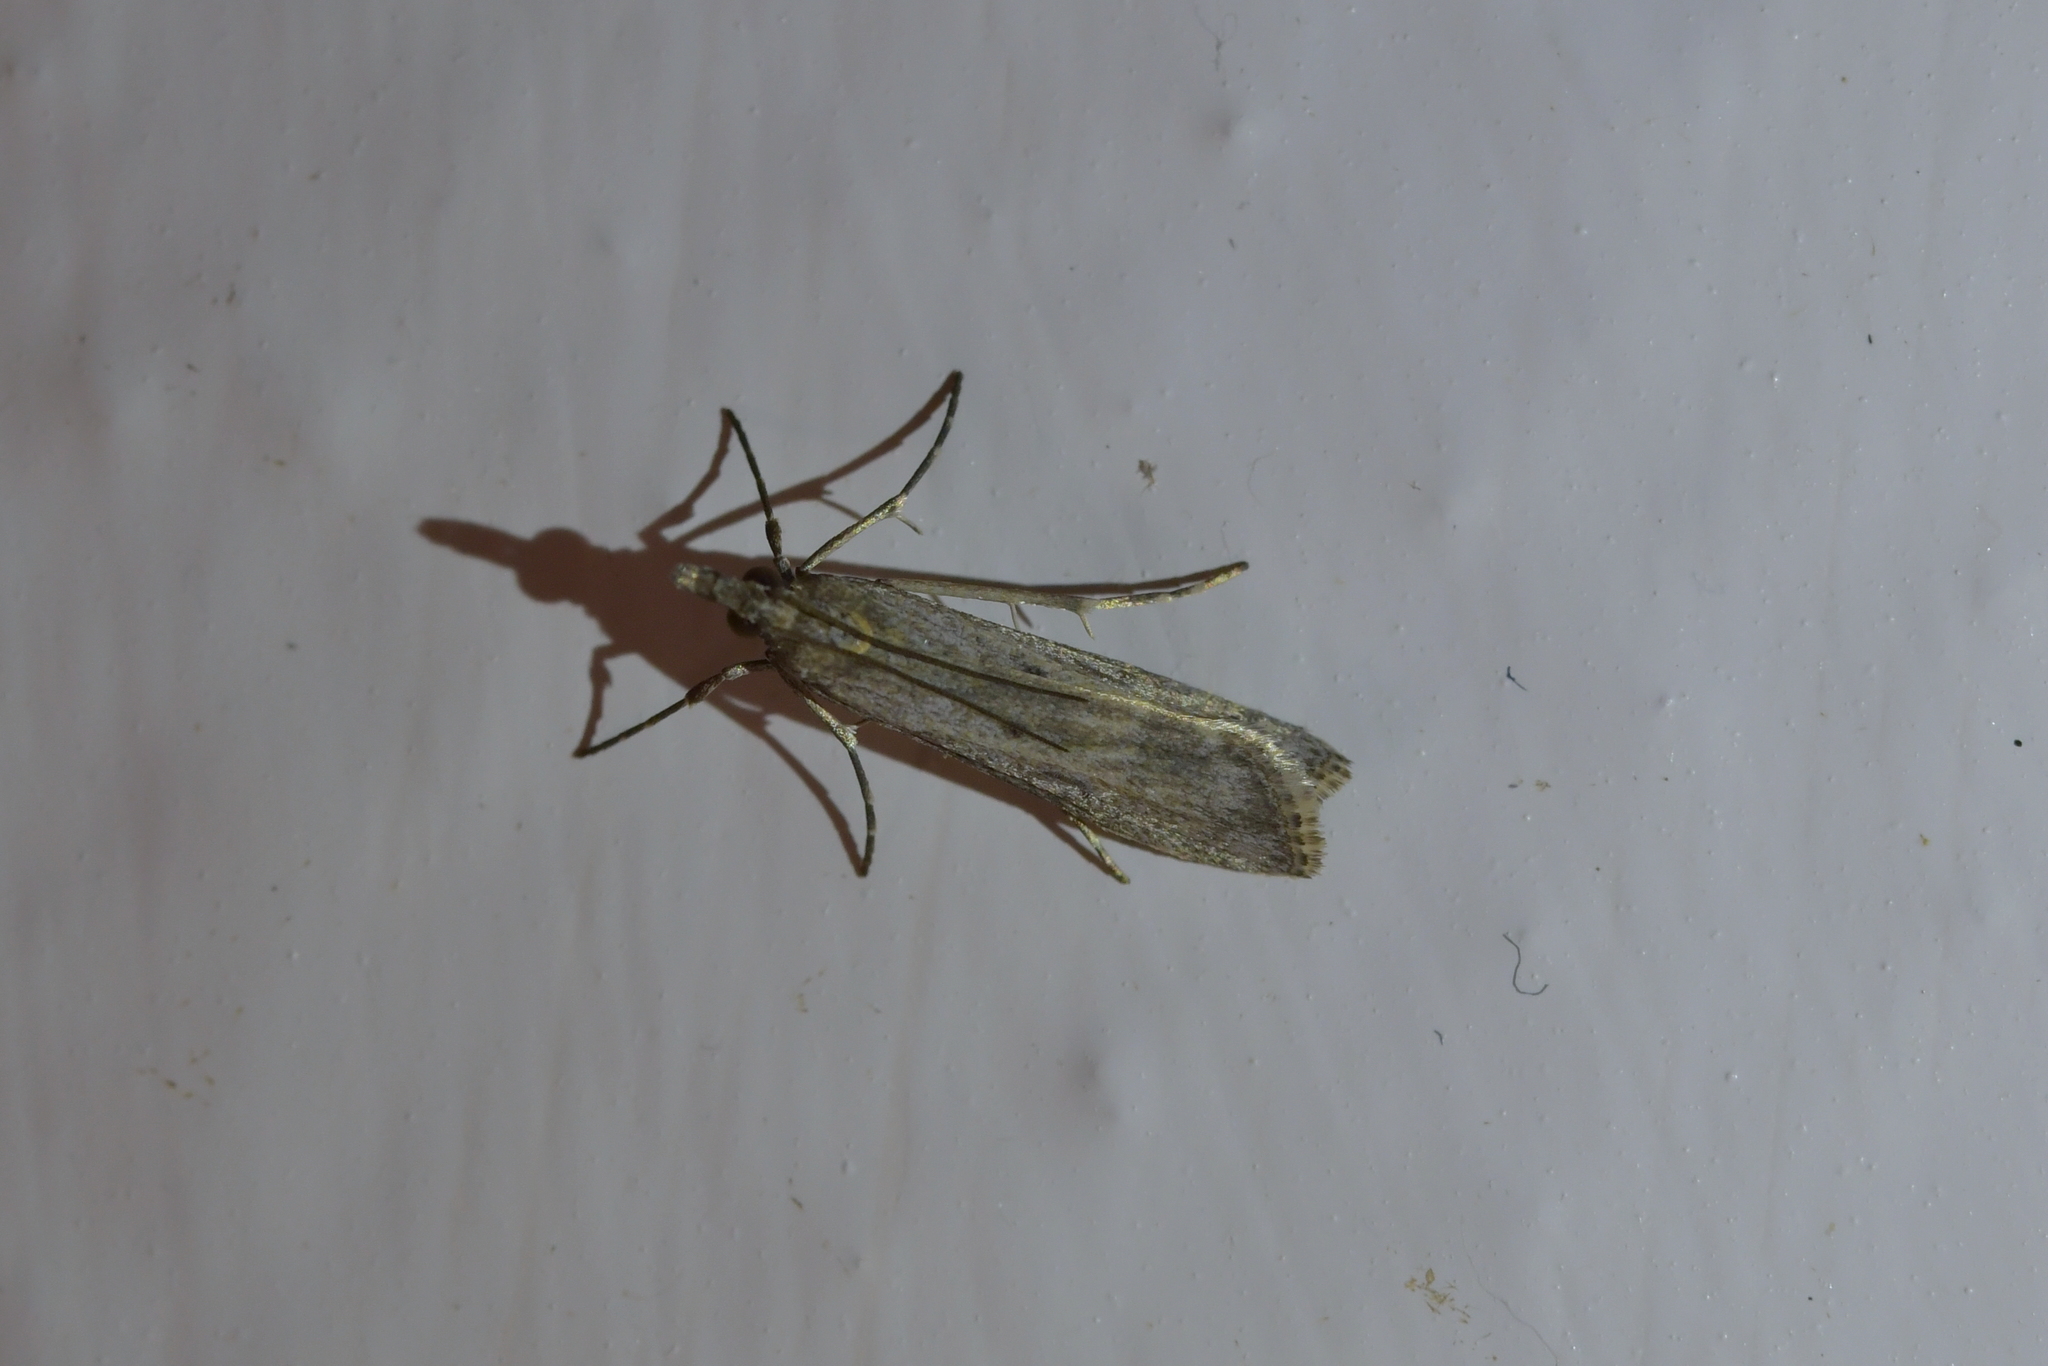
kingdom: Animalia
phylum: Arthropoda
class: Insecta
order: Lepidoptera
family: Crambidae
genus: Eudonia
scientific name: Eudonia leptalea
